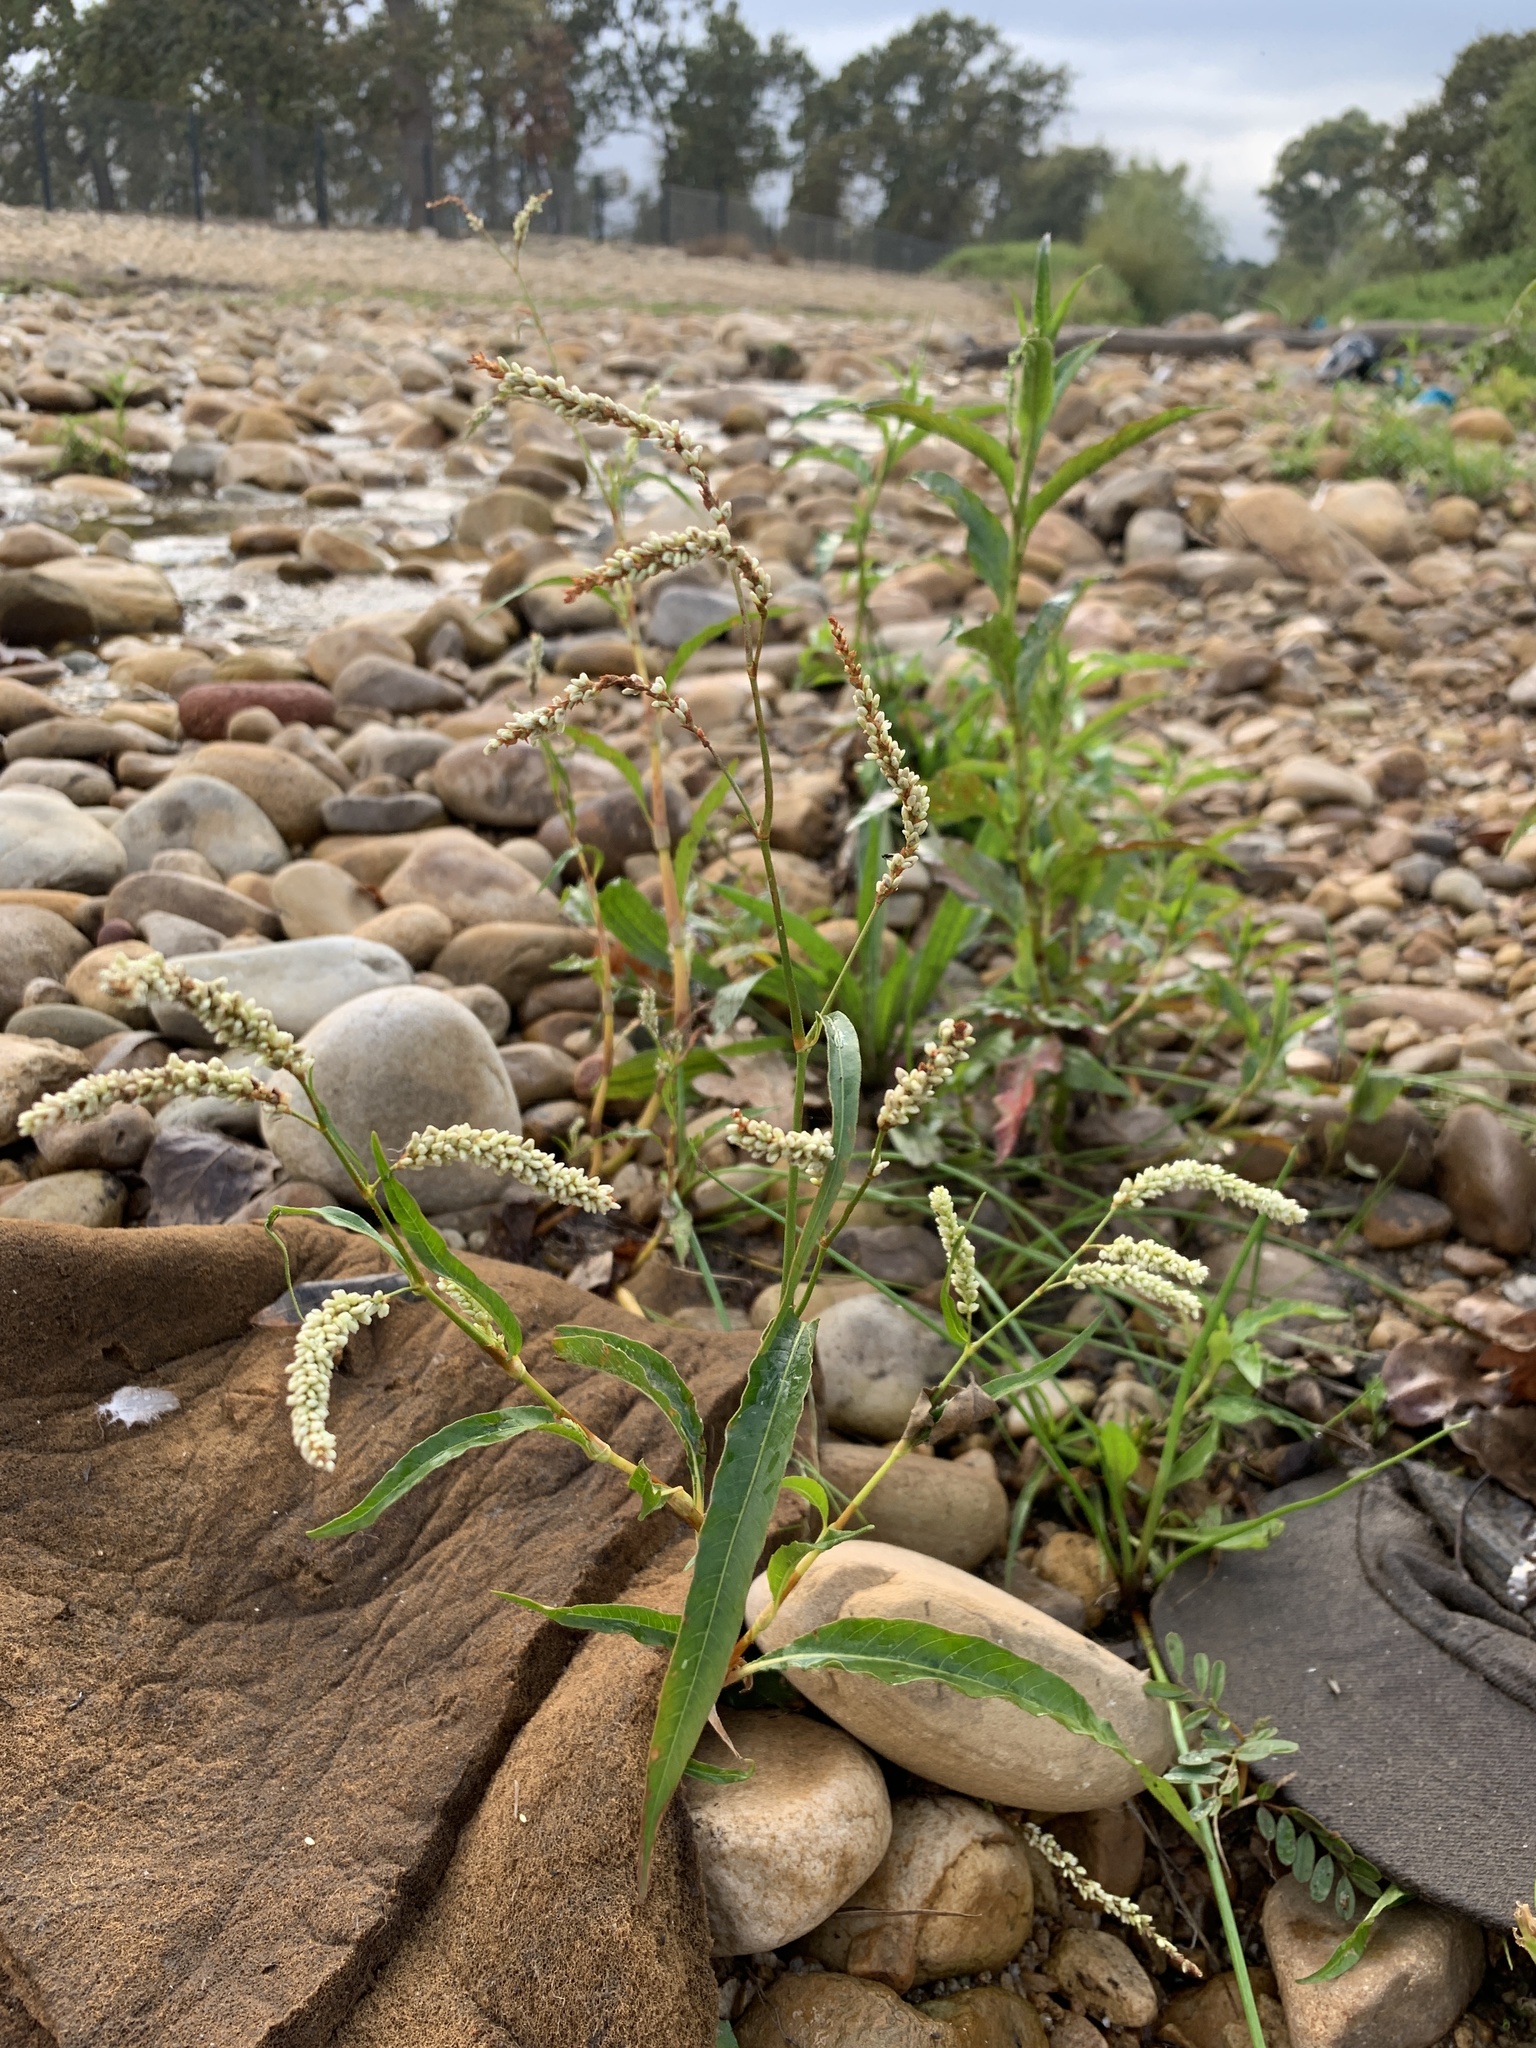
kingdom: Plantae
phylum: Tracheophyta
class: Magnoliopsida
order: Caryophyllales
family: Polygonaceae
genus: Persicaria
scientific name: Persicaria lapathifolia
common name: Curlytop knotweed
